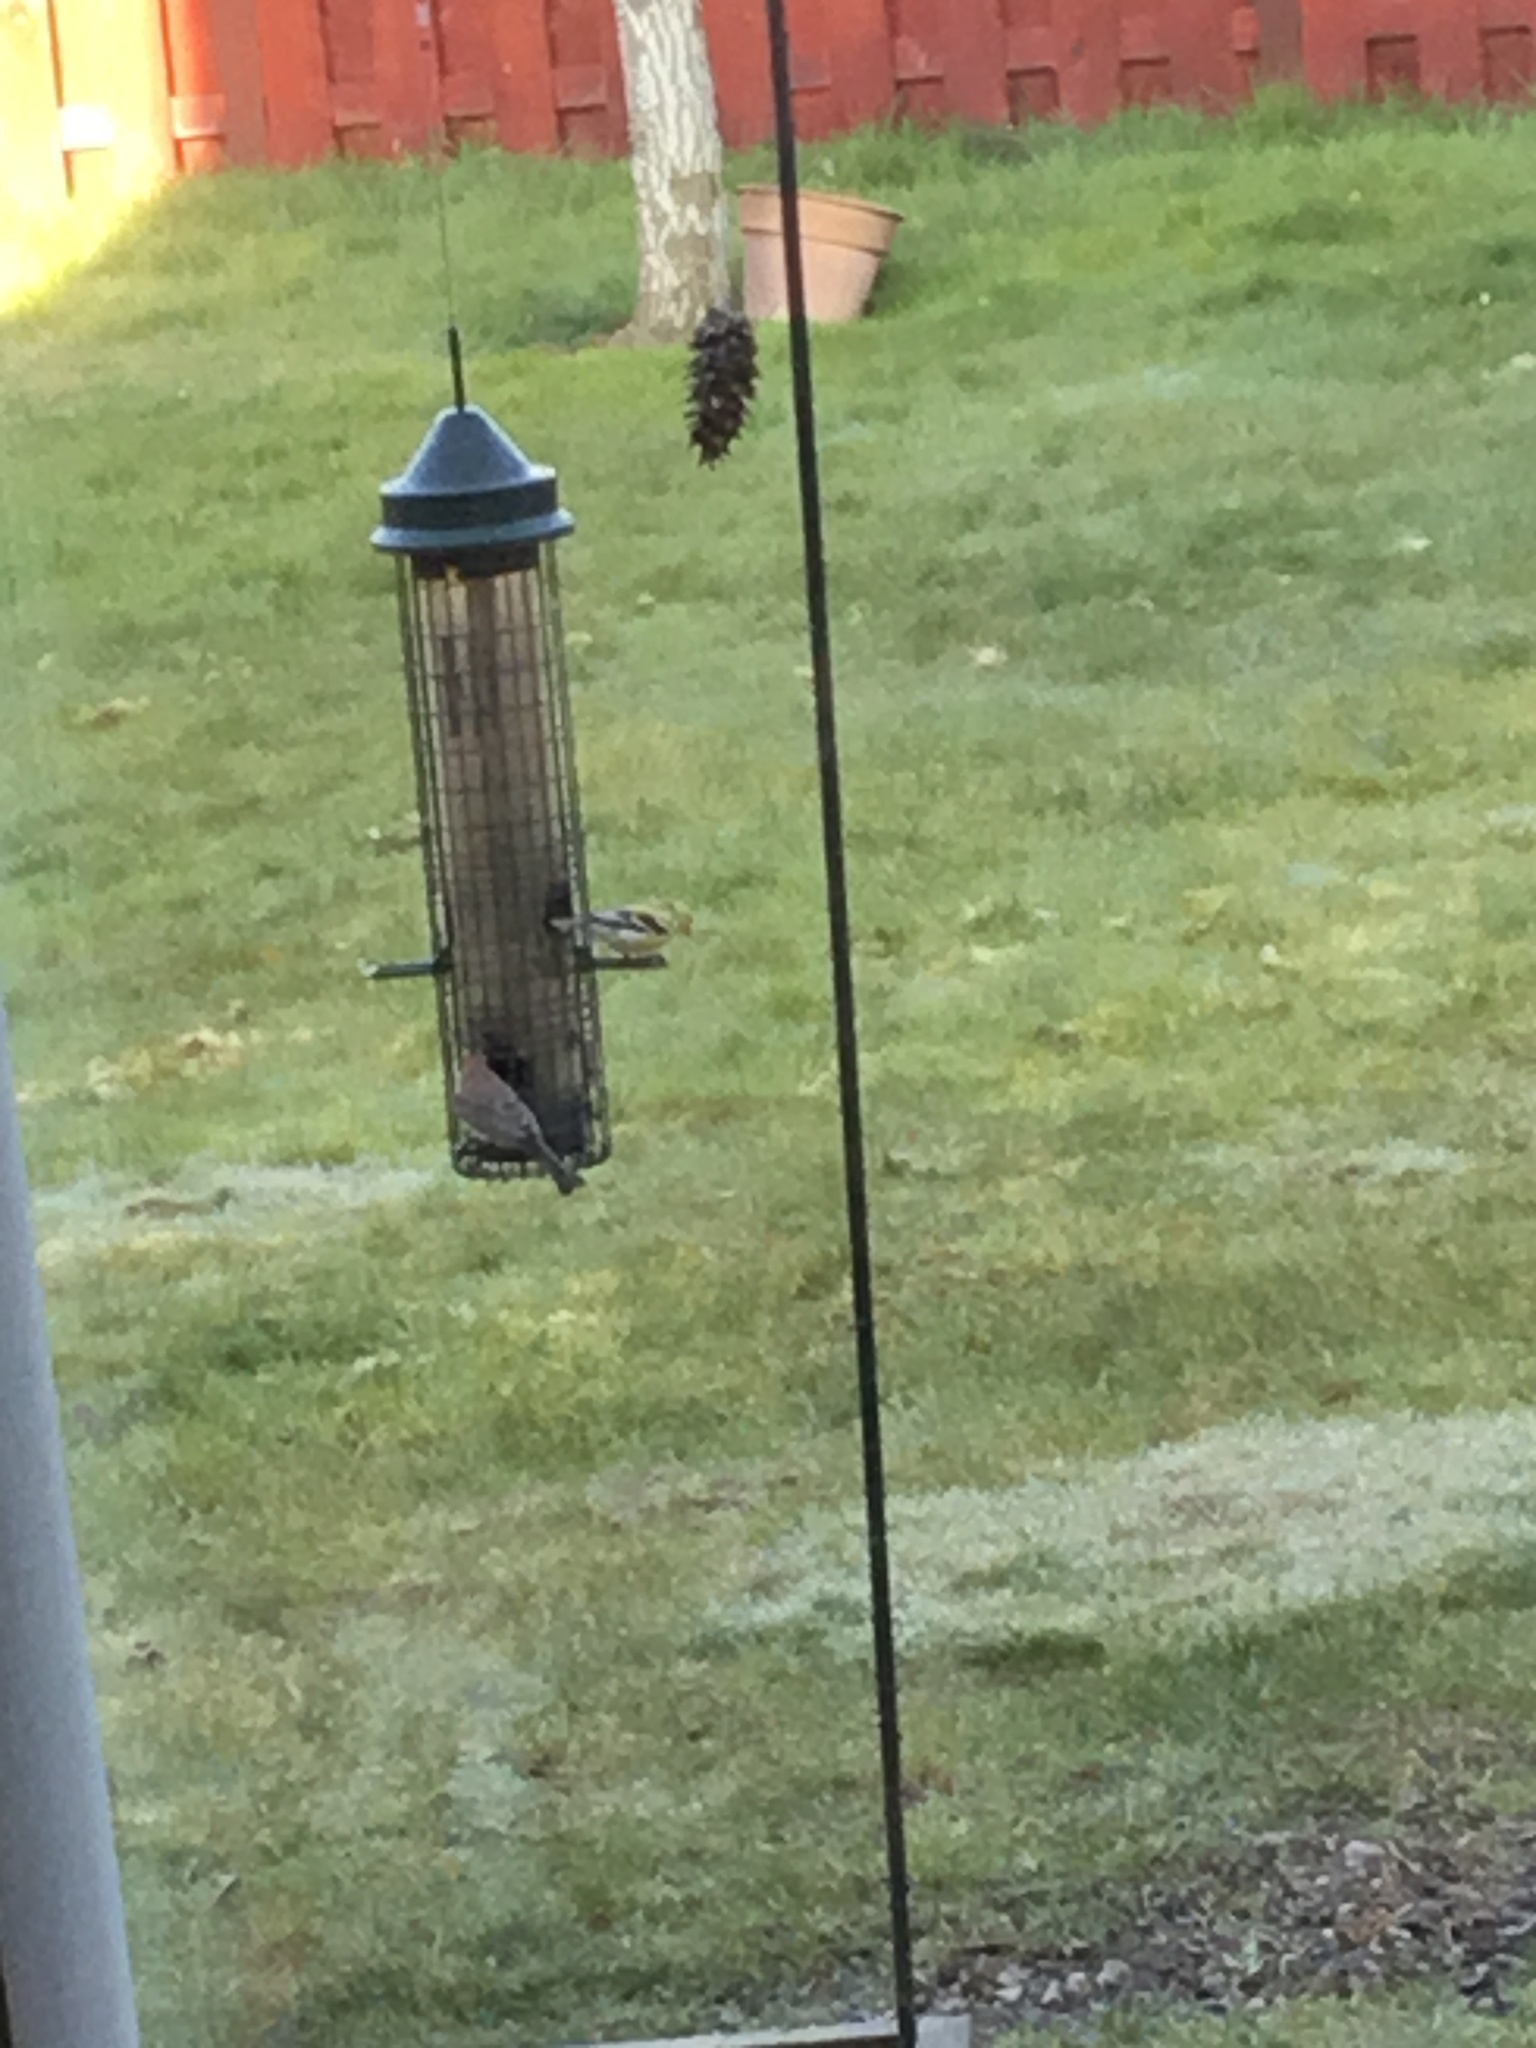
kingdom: Animalia
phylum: Chordata
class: Aves
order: Passeriformes
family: Fringillidae
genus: Spinus
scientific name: Spinus tristis
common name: American goldfinch
